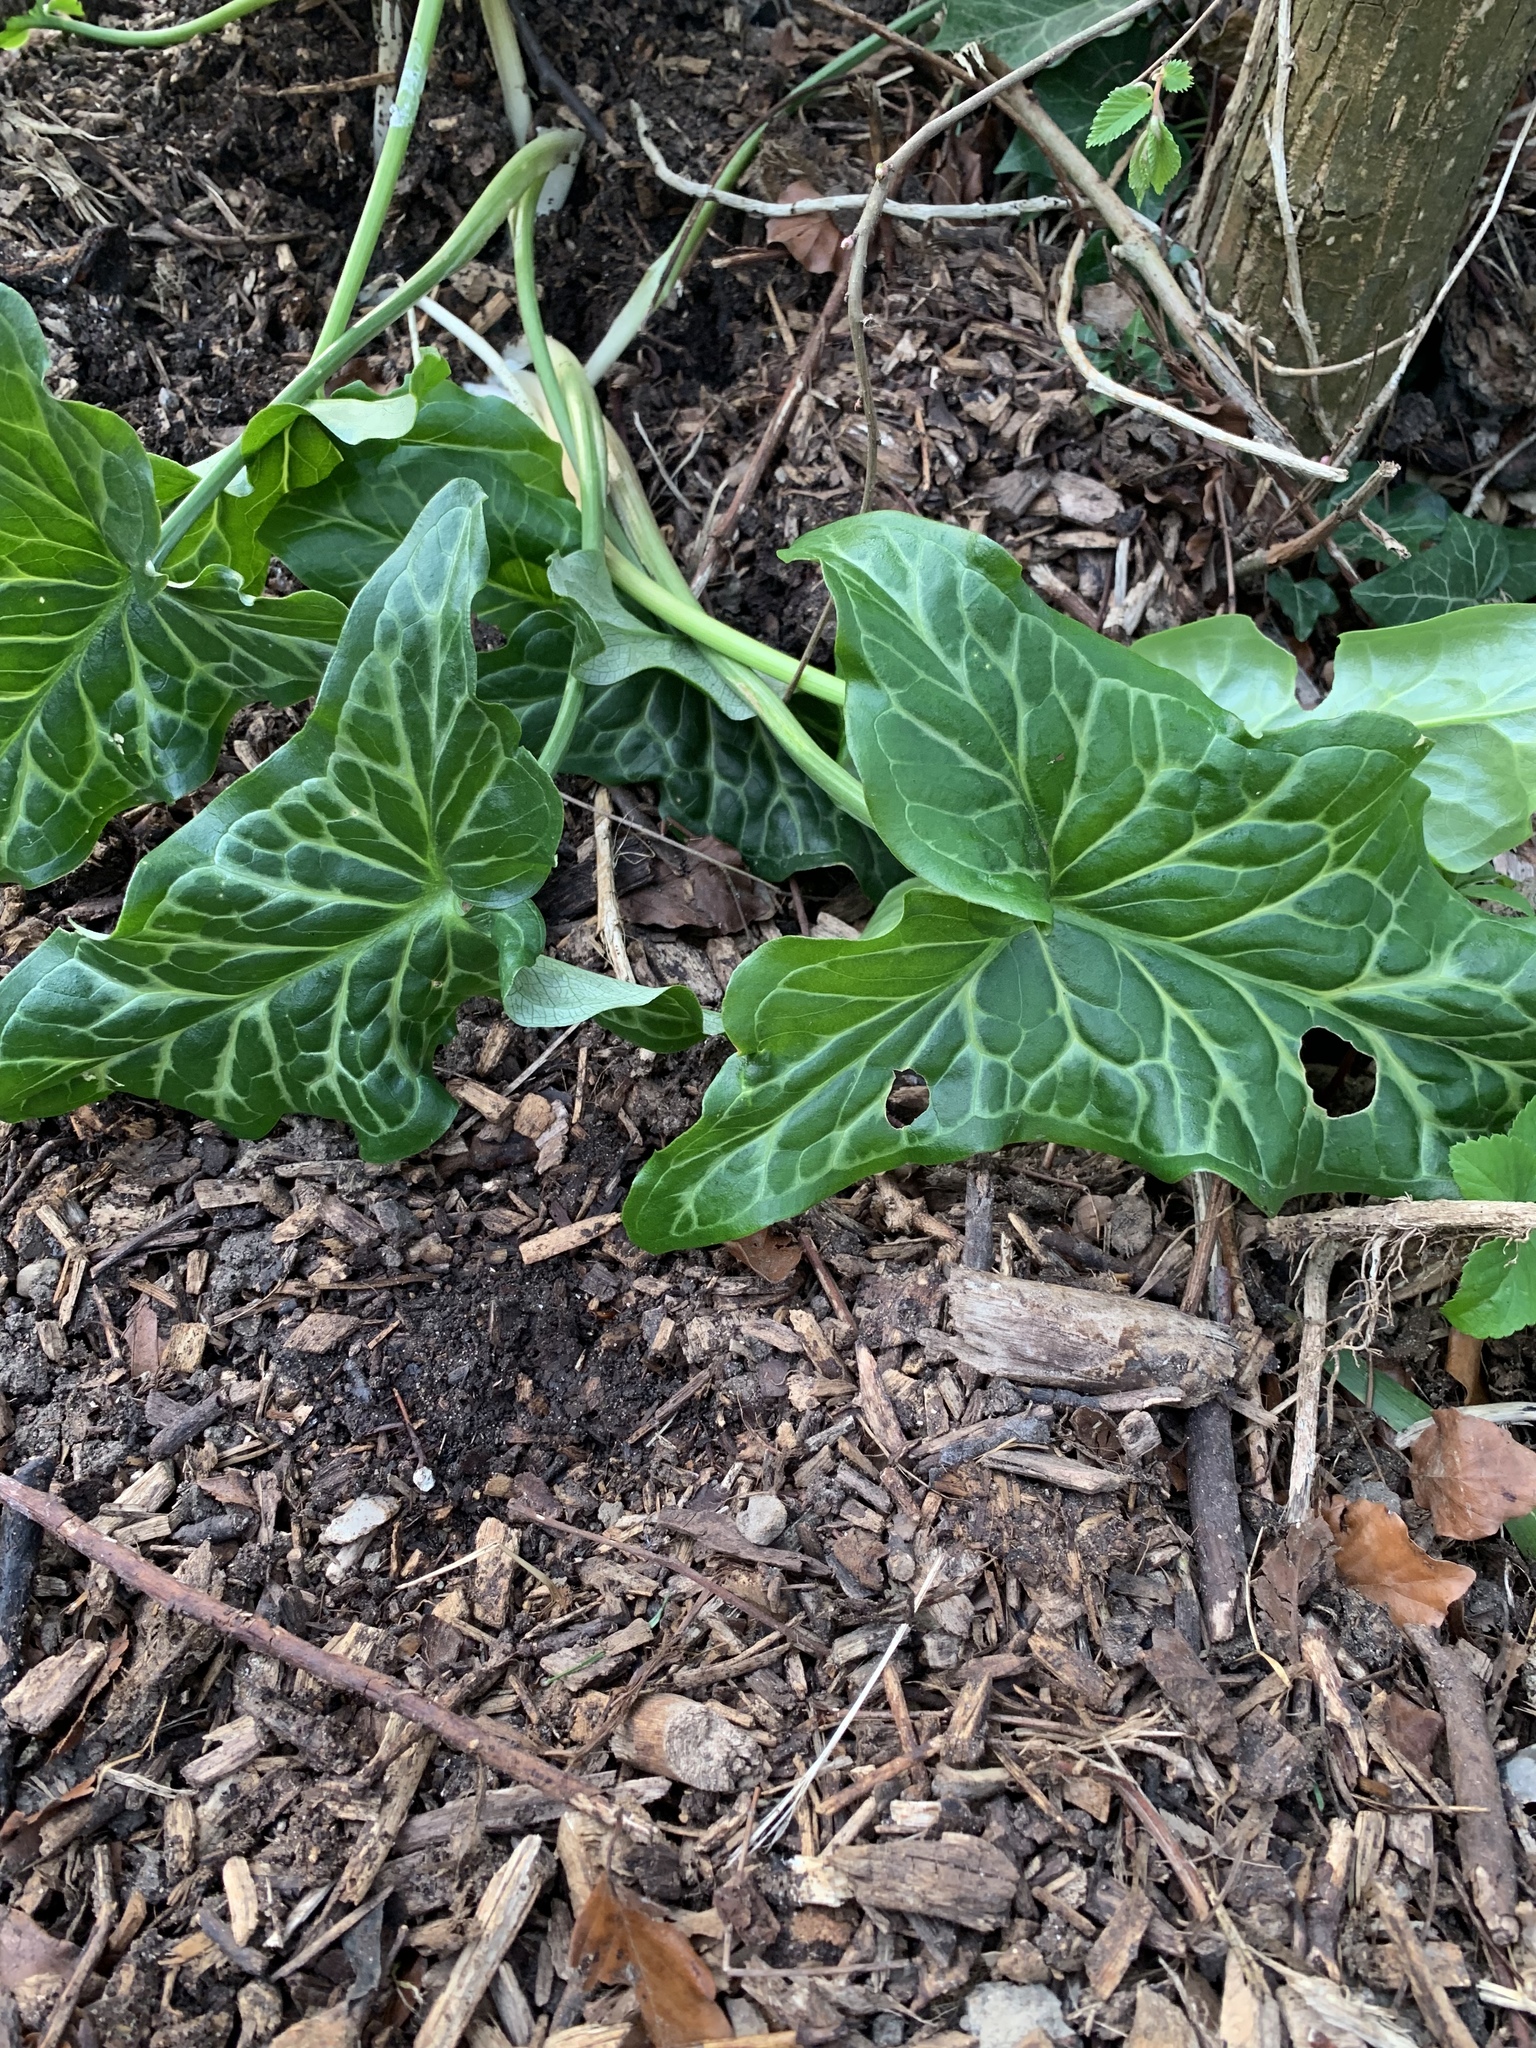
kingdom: Plantae
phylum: Tracheophyta
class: Liliopsida
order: Alismatales
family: Araceae
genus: Arum
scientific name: Arum italicum
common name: Italian lords-and-ladies
